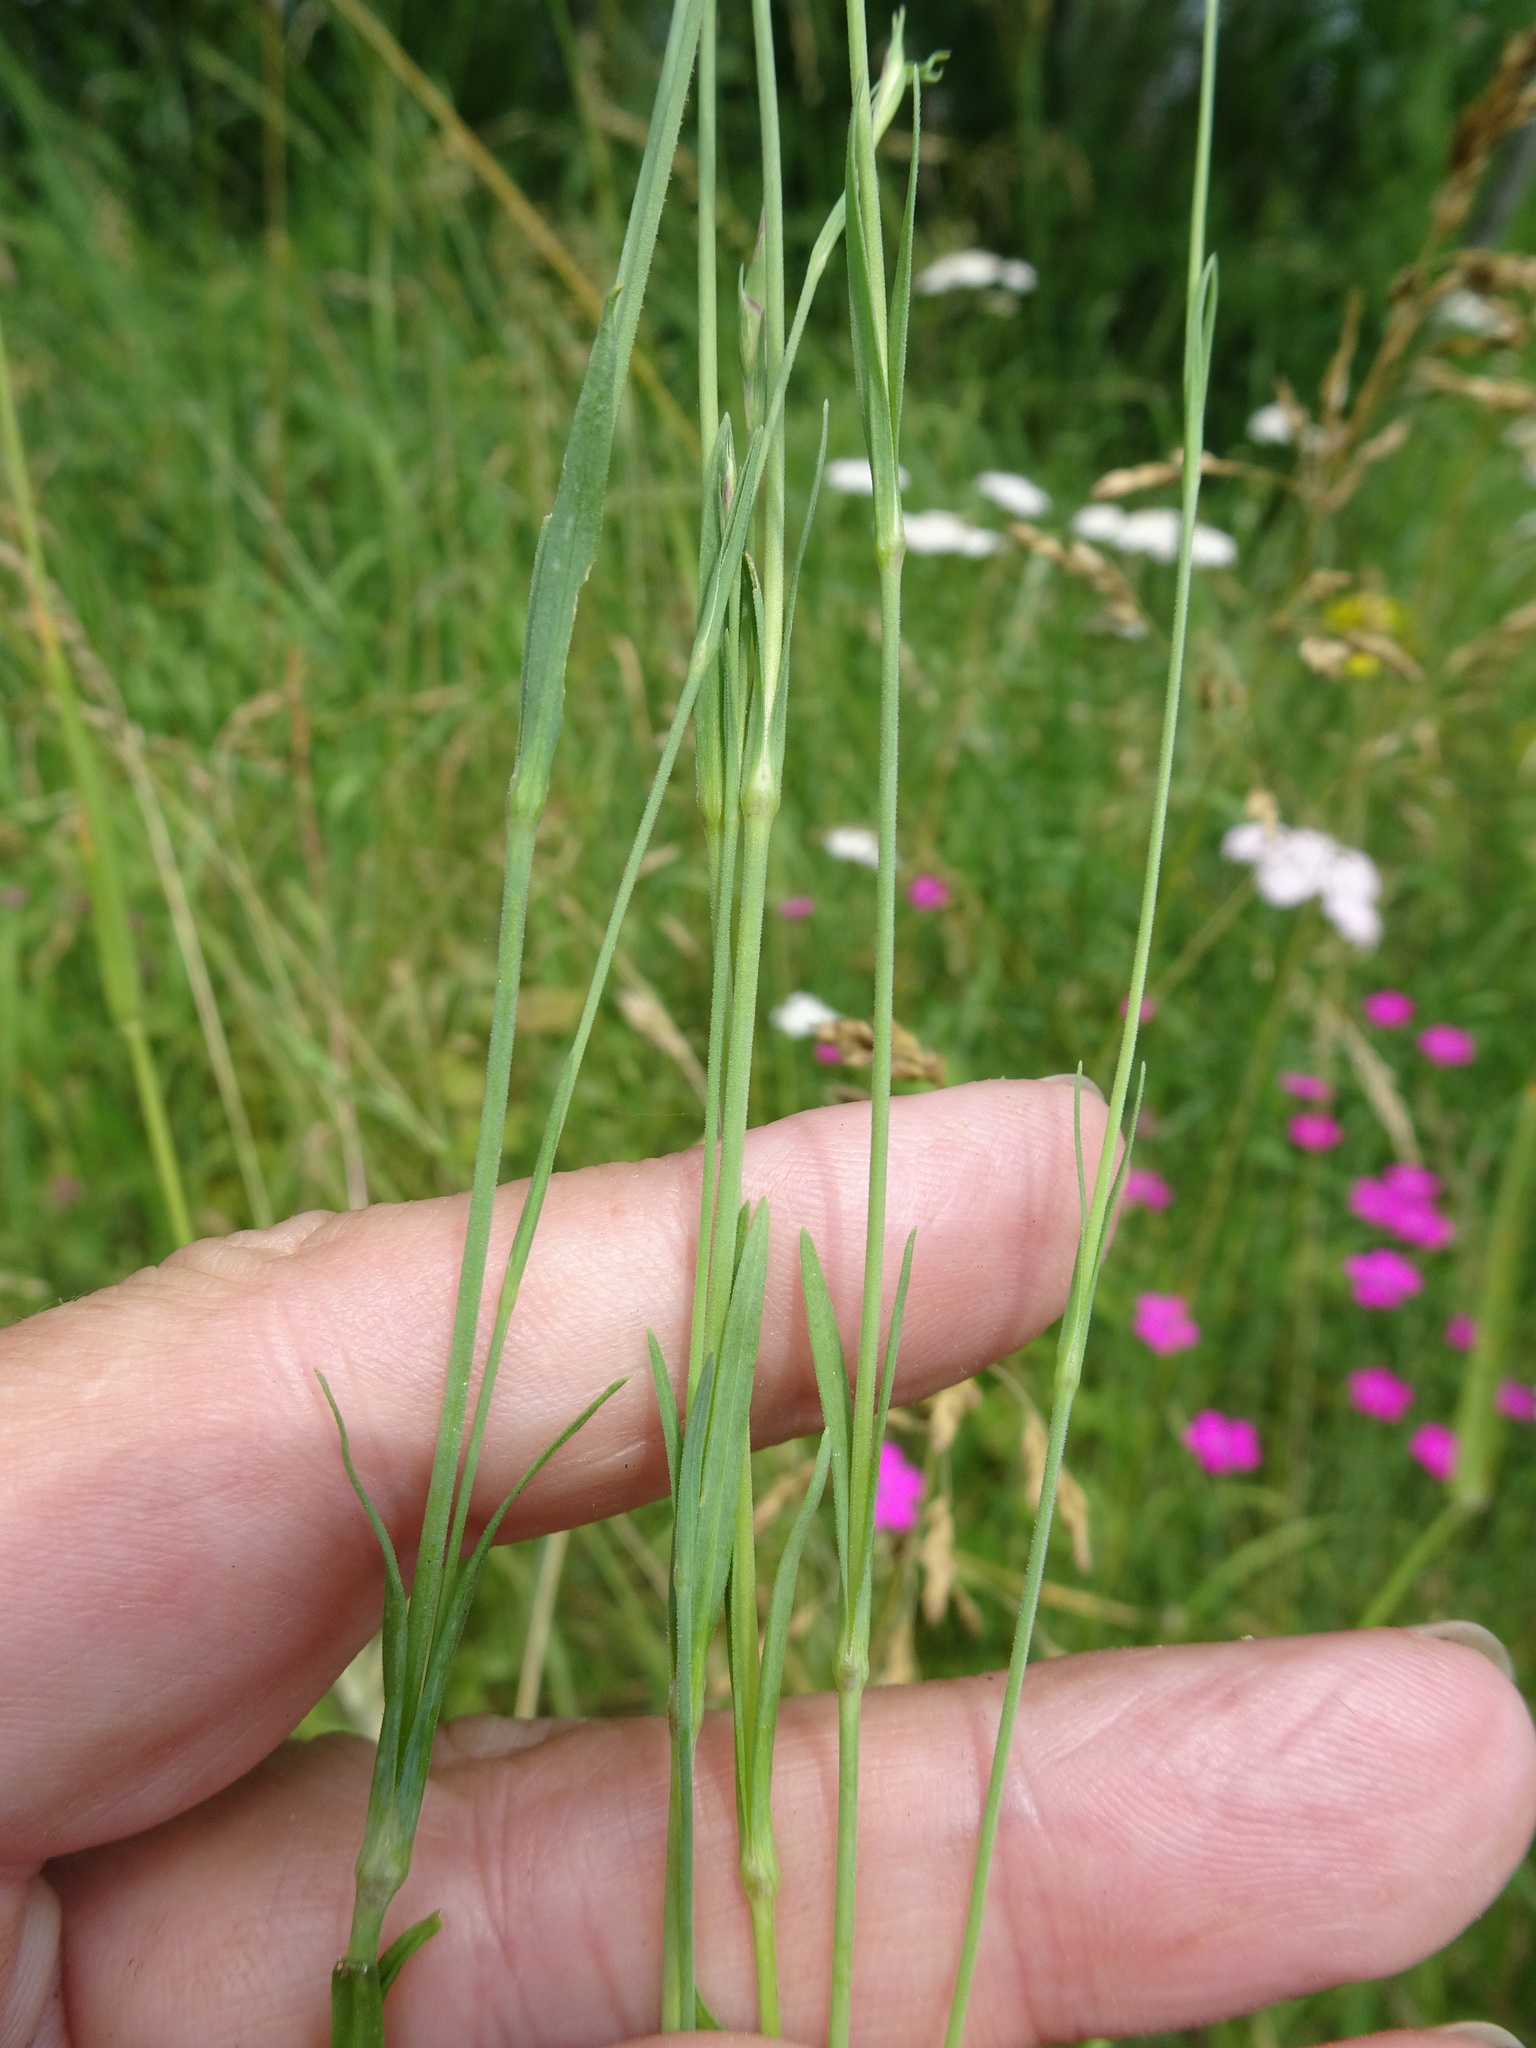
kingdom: Plantae
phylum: Tracheophyta
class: Magnoliopsida
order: Caryophyllales
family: Caryophyllaceae
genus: Dianthus
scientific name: Dianthus deltoides
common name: Maiden pink
